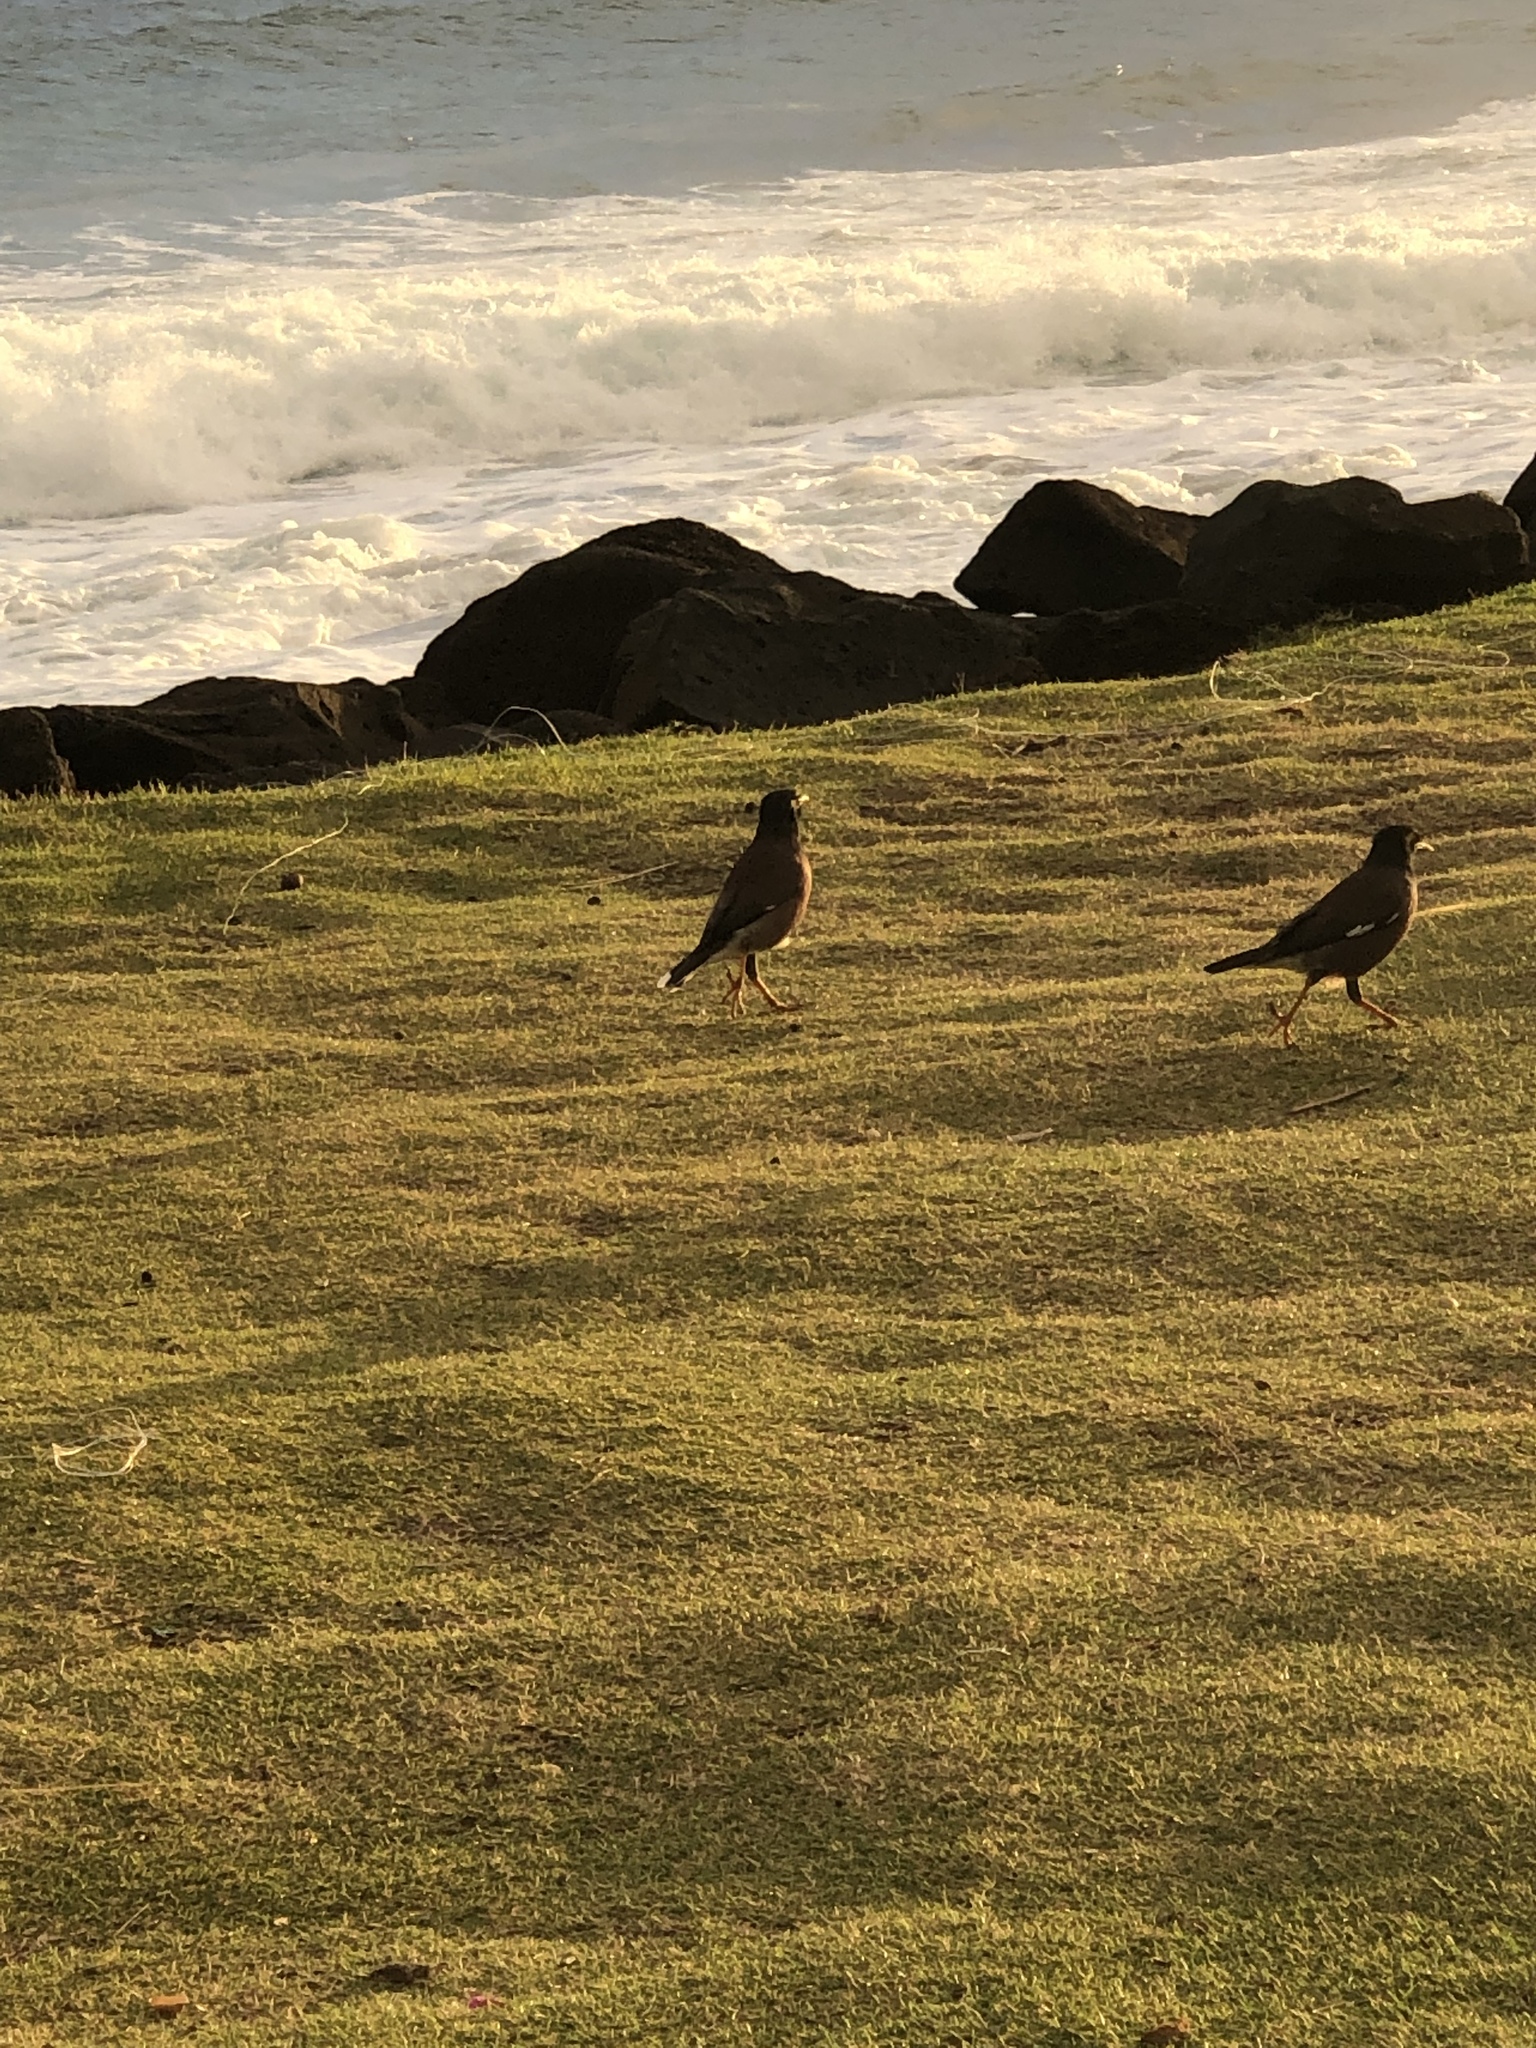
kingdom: Animalia
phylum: Chordata
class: Aves
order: Passeriformes
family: Sturnidae
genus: Acridotheres
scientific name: Acridotheres tristis
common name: Common myna
